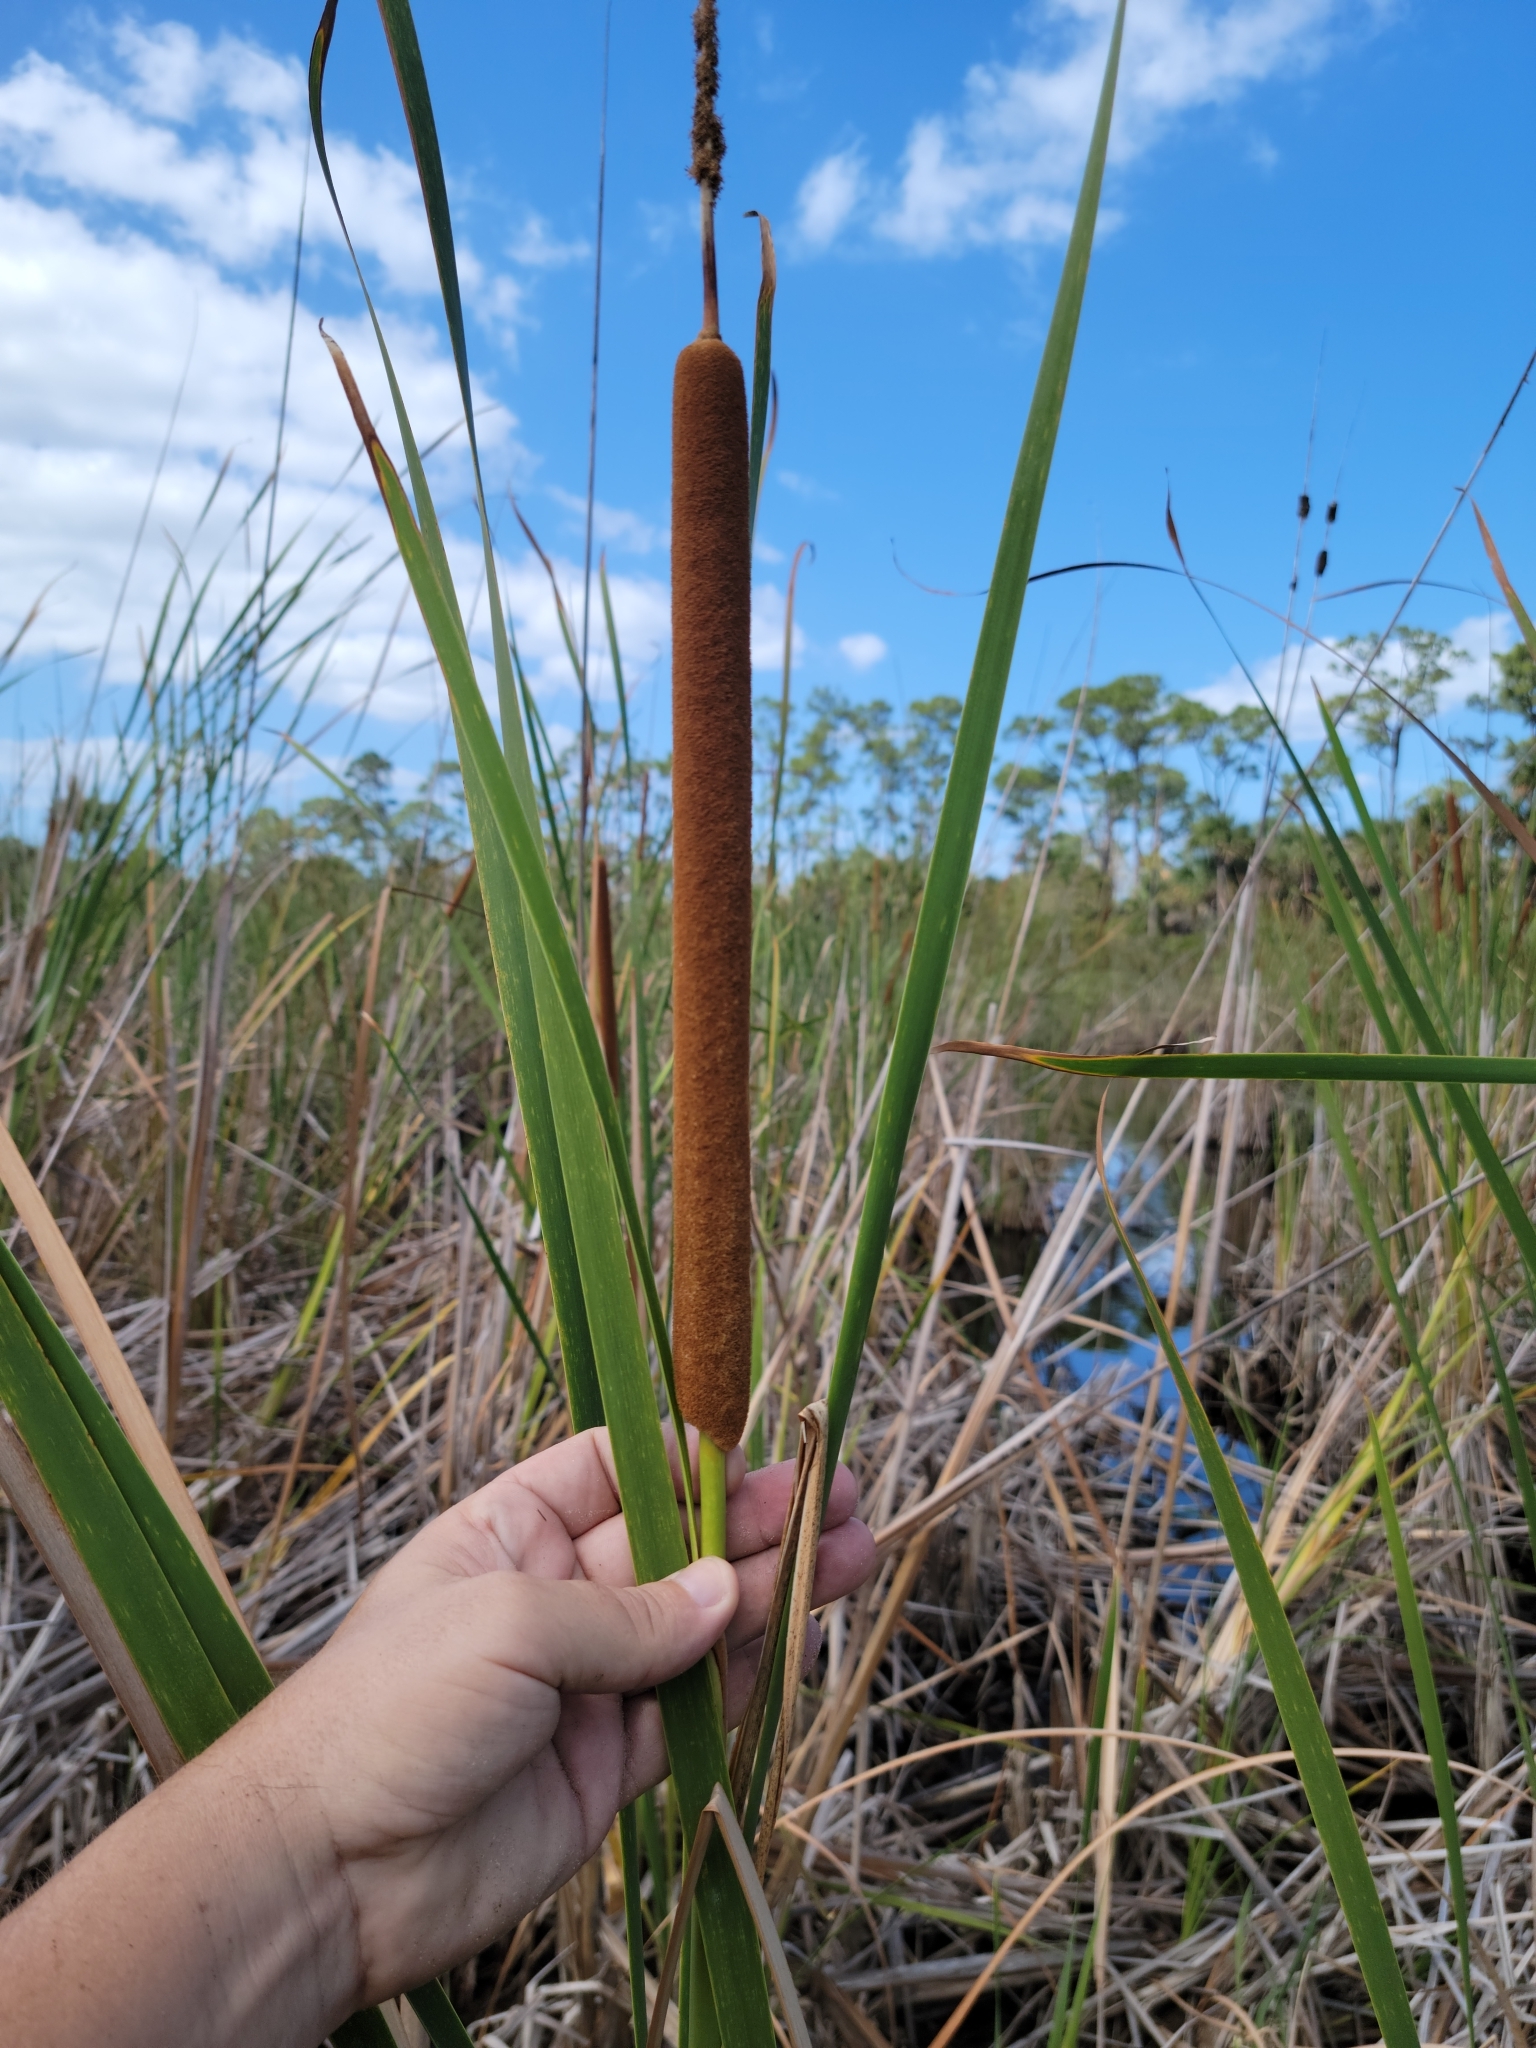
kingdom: Plantae
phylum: Tracheophyta
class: Liliopsida
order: Poales
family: Typhaceae
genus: Typha
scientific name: Typha domingensis
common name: Southern cattail
